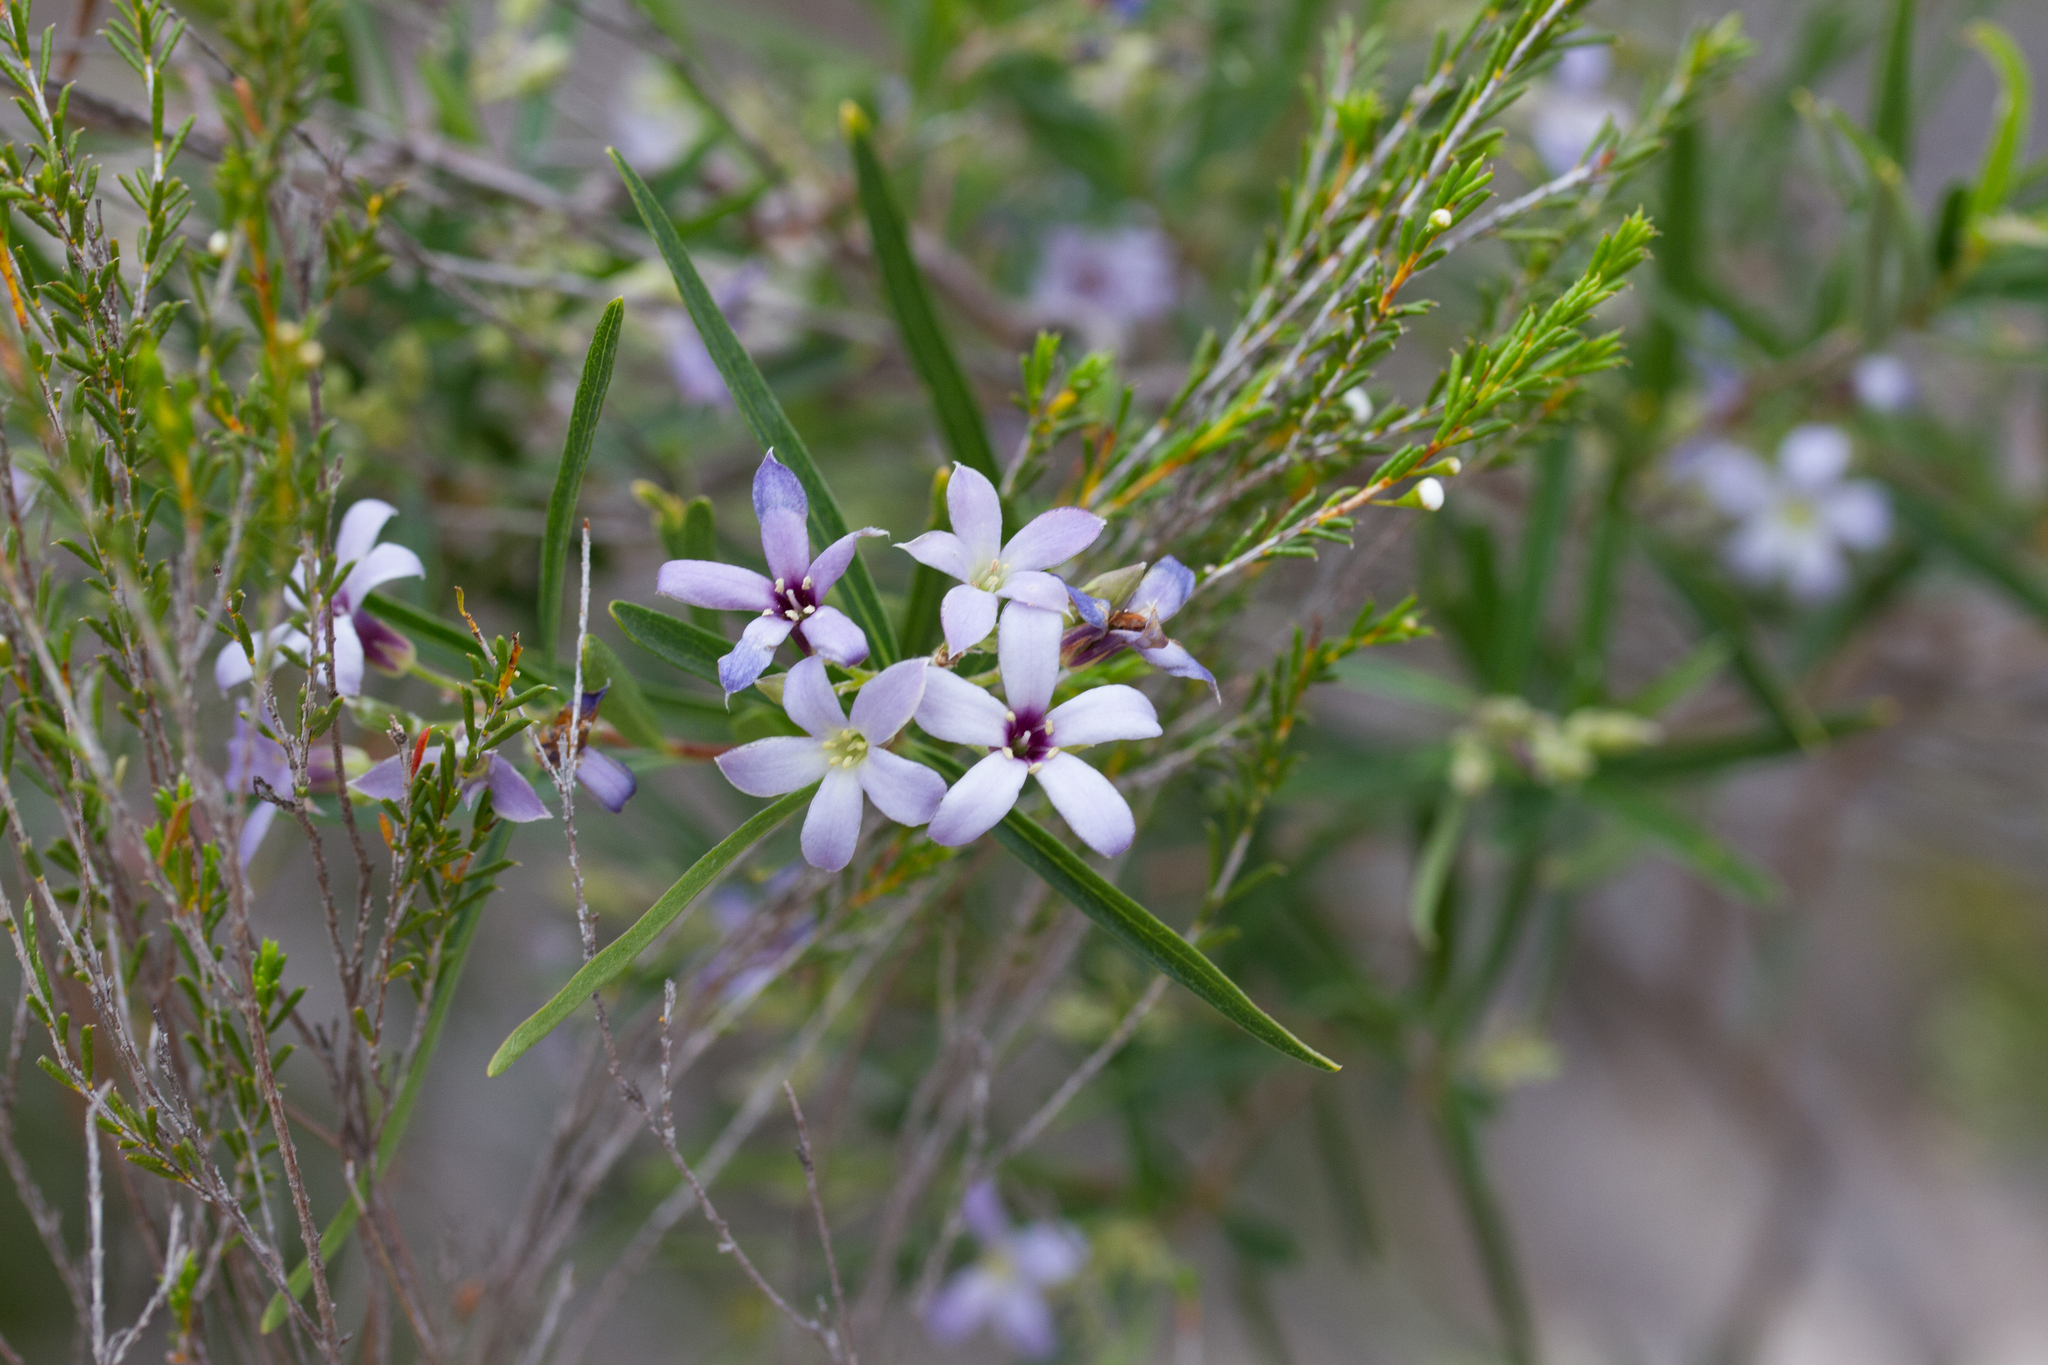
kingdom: Plantae
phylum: Tracheophyta
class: Magnoliopsida
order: Apiales
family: Pittosporaceae
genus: Billardiera
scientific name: Billardiera cymosa
